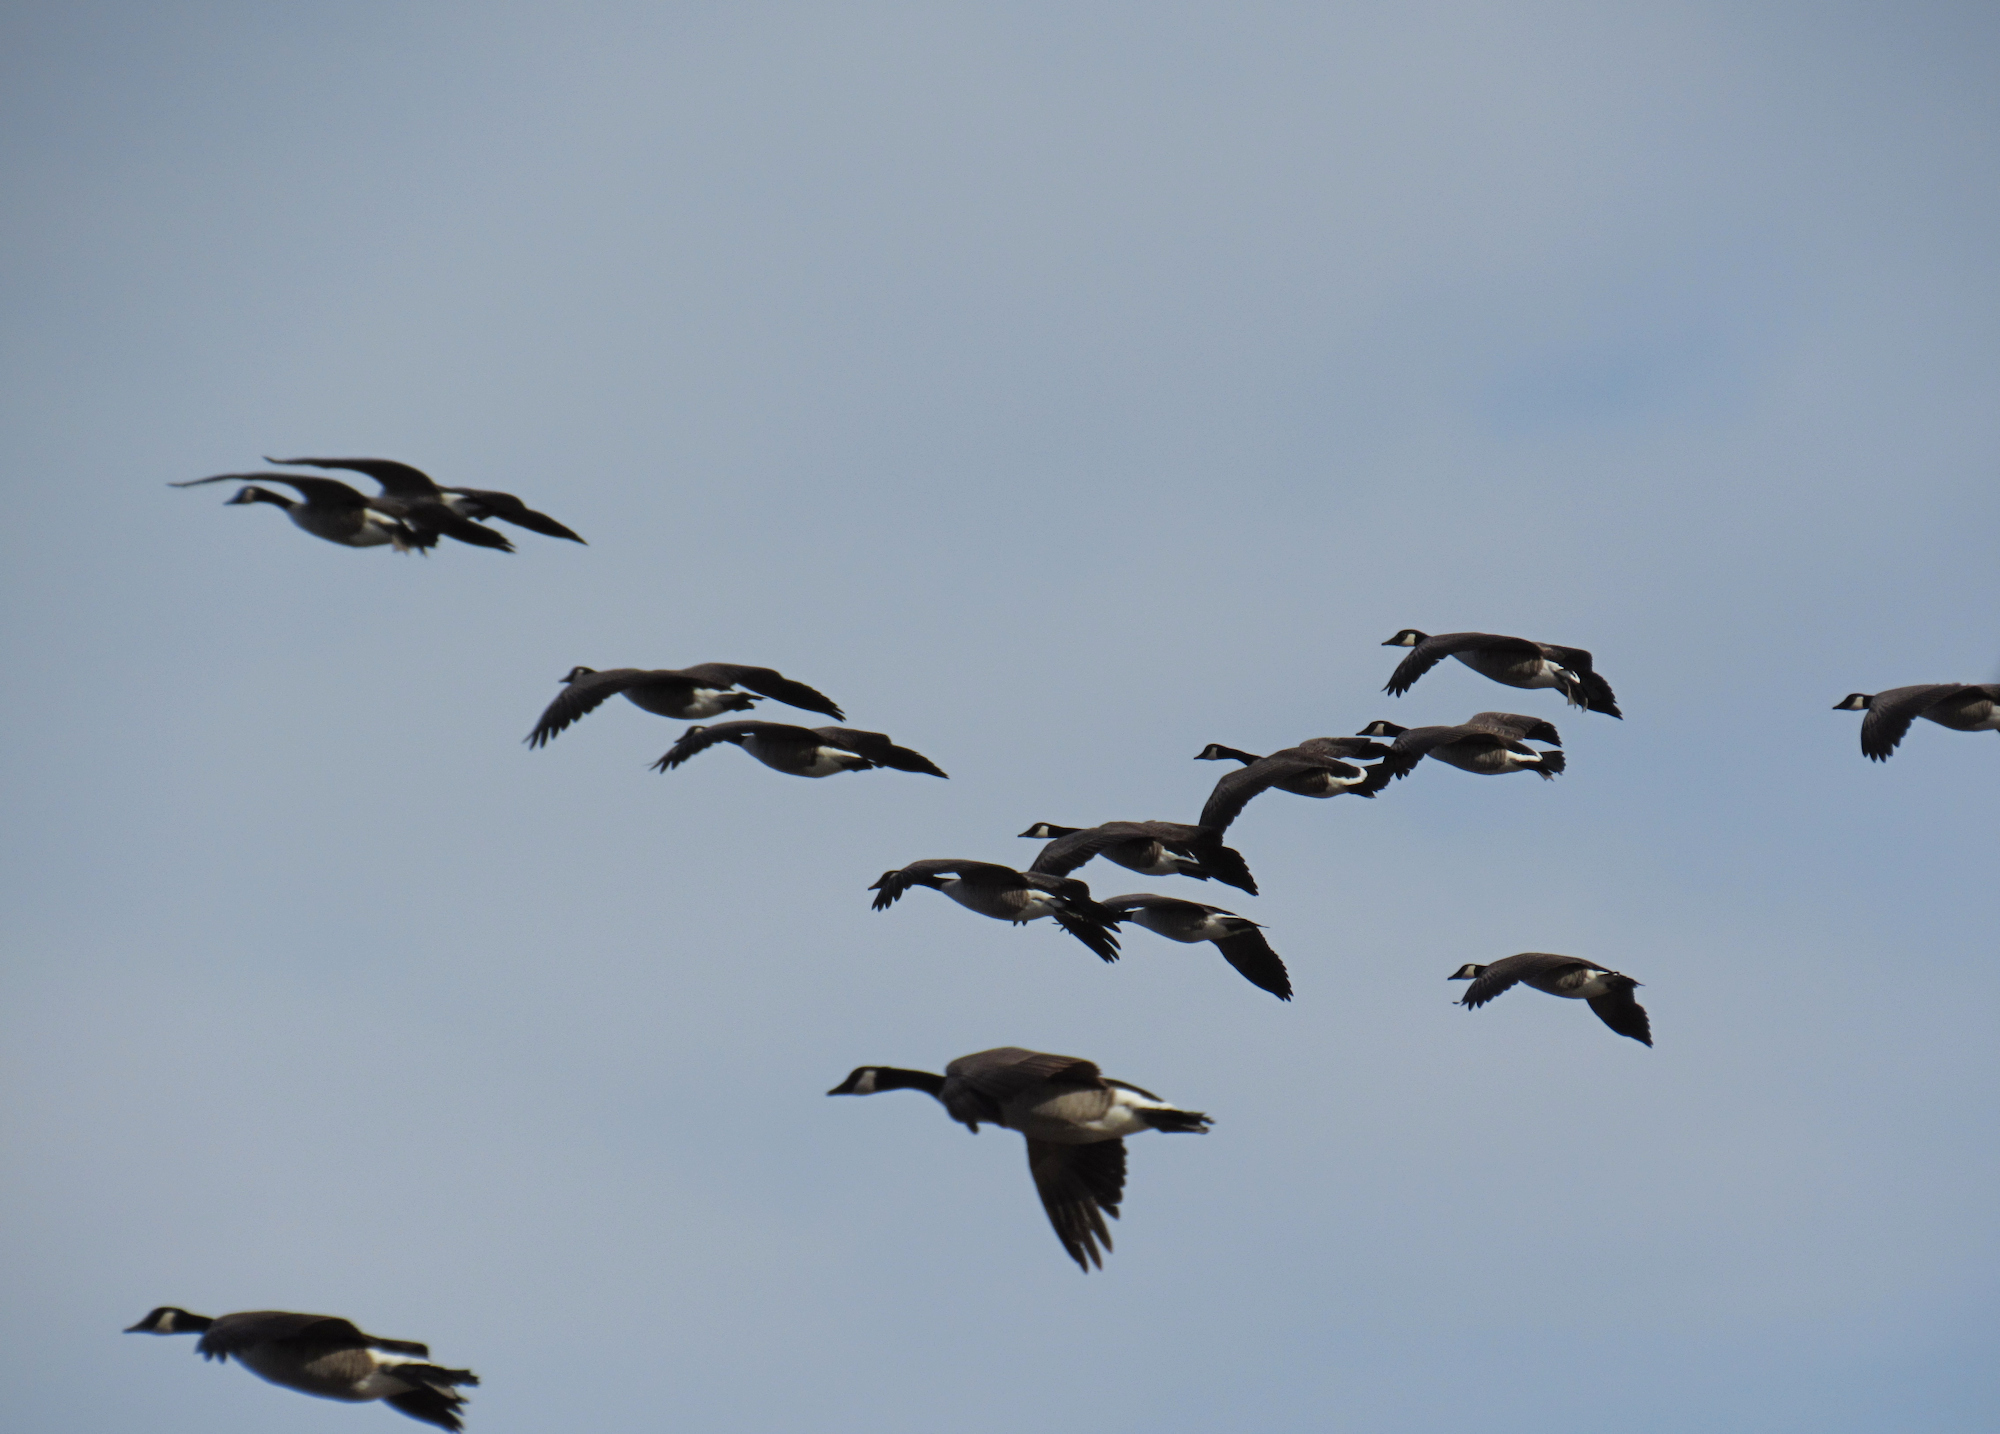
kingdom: Animalia
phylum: Chordata
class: Aves
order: Anseriformes
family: Anatidae
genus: Branta
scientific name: Branta hutchinsii
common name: Cackling goose
